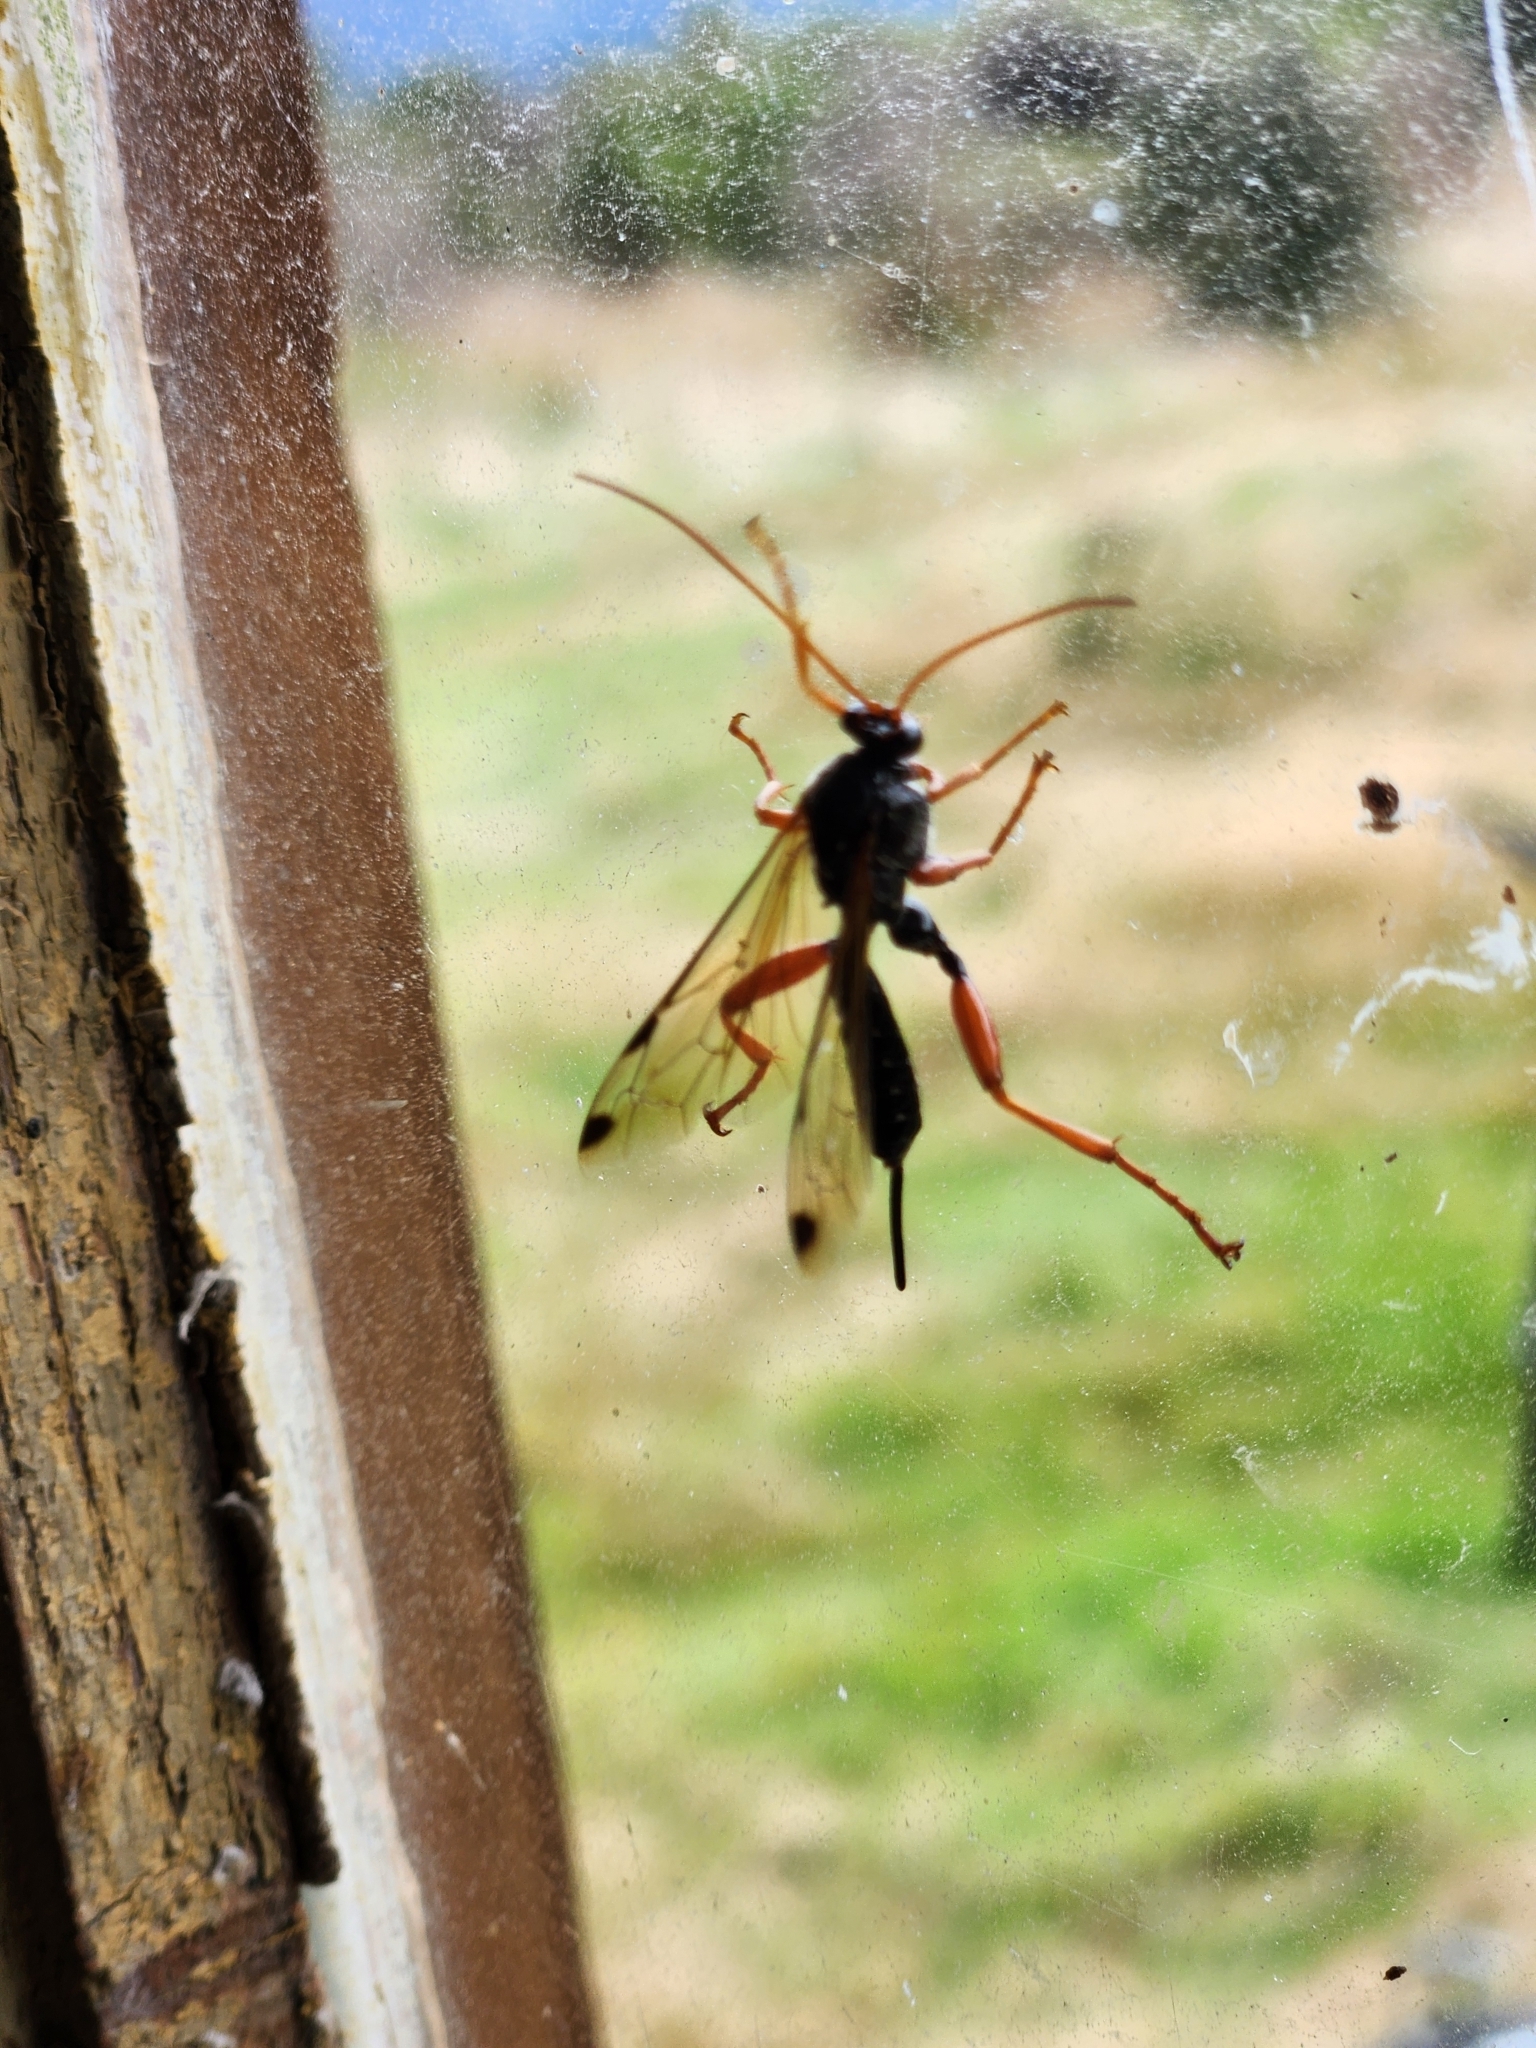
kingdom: Animalia
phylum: Arthropoda
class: Insecta
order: Hymenoptera
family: Ichneumonidae
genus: Echthromorpha
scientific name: Echthromorpha intricatoria
